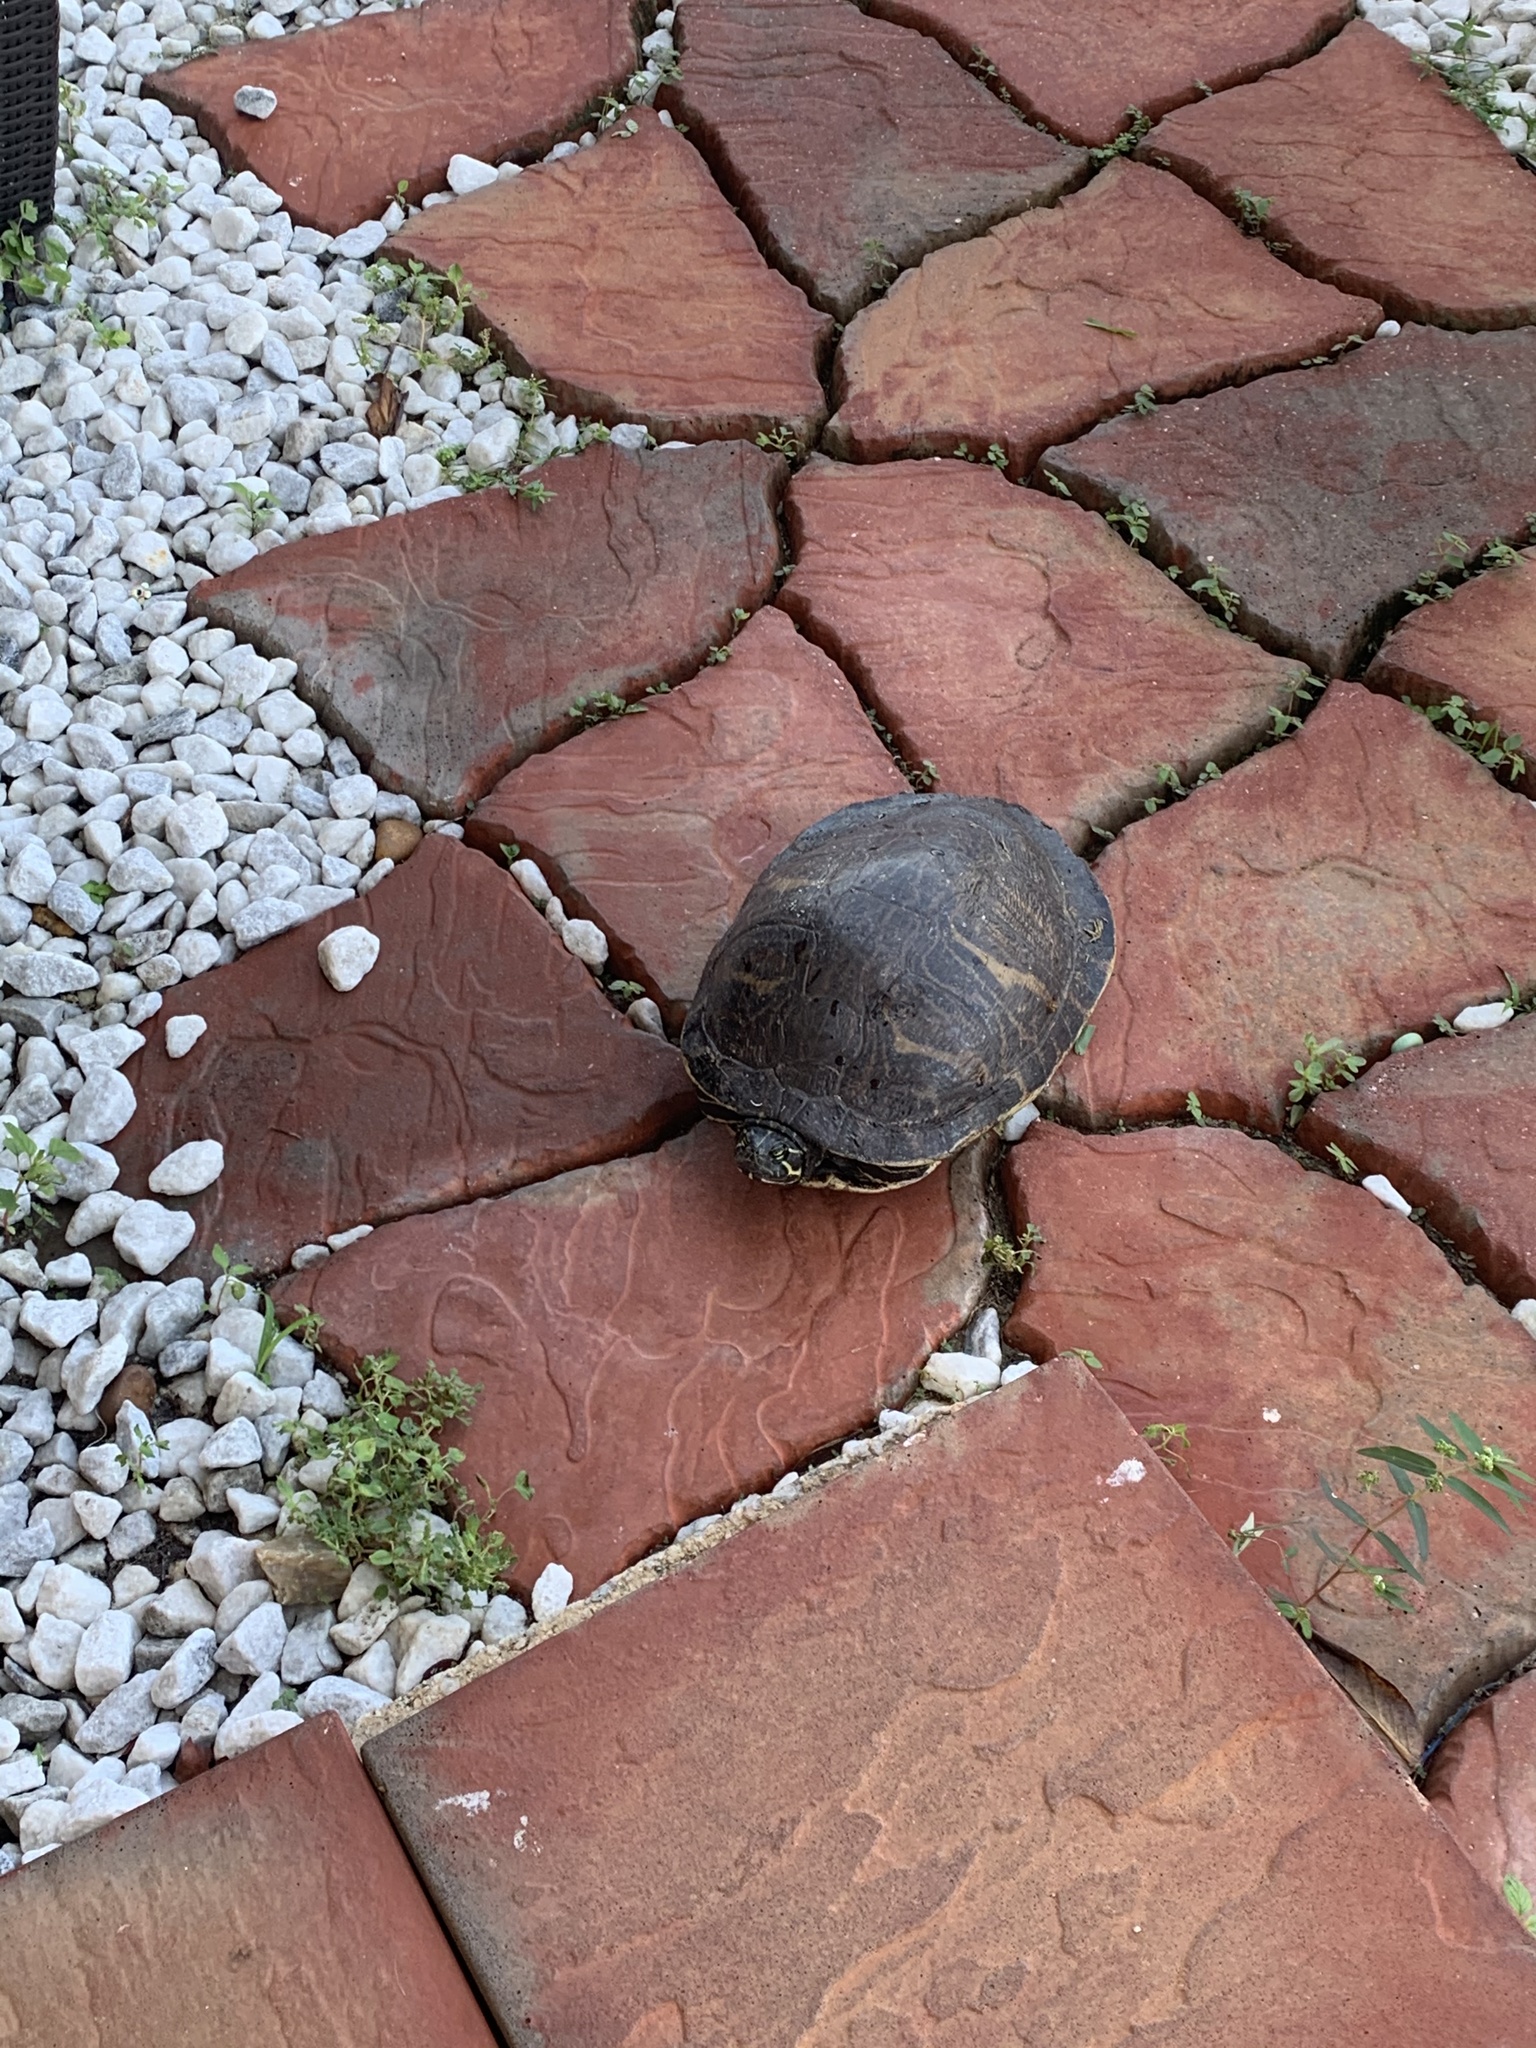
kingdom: Animalia
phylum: Chordata
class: Testudines
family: Emydidae
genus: Pseudemys
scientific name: Pseudemys peninsularis
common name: Peninsula cooter
